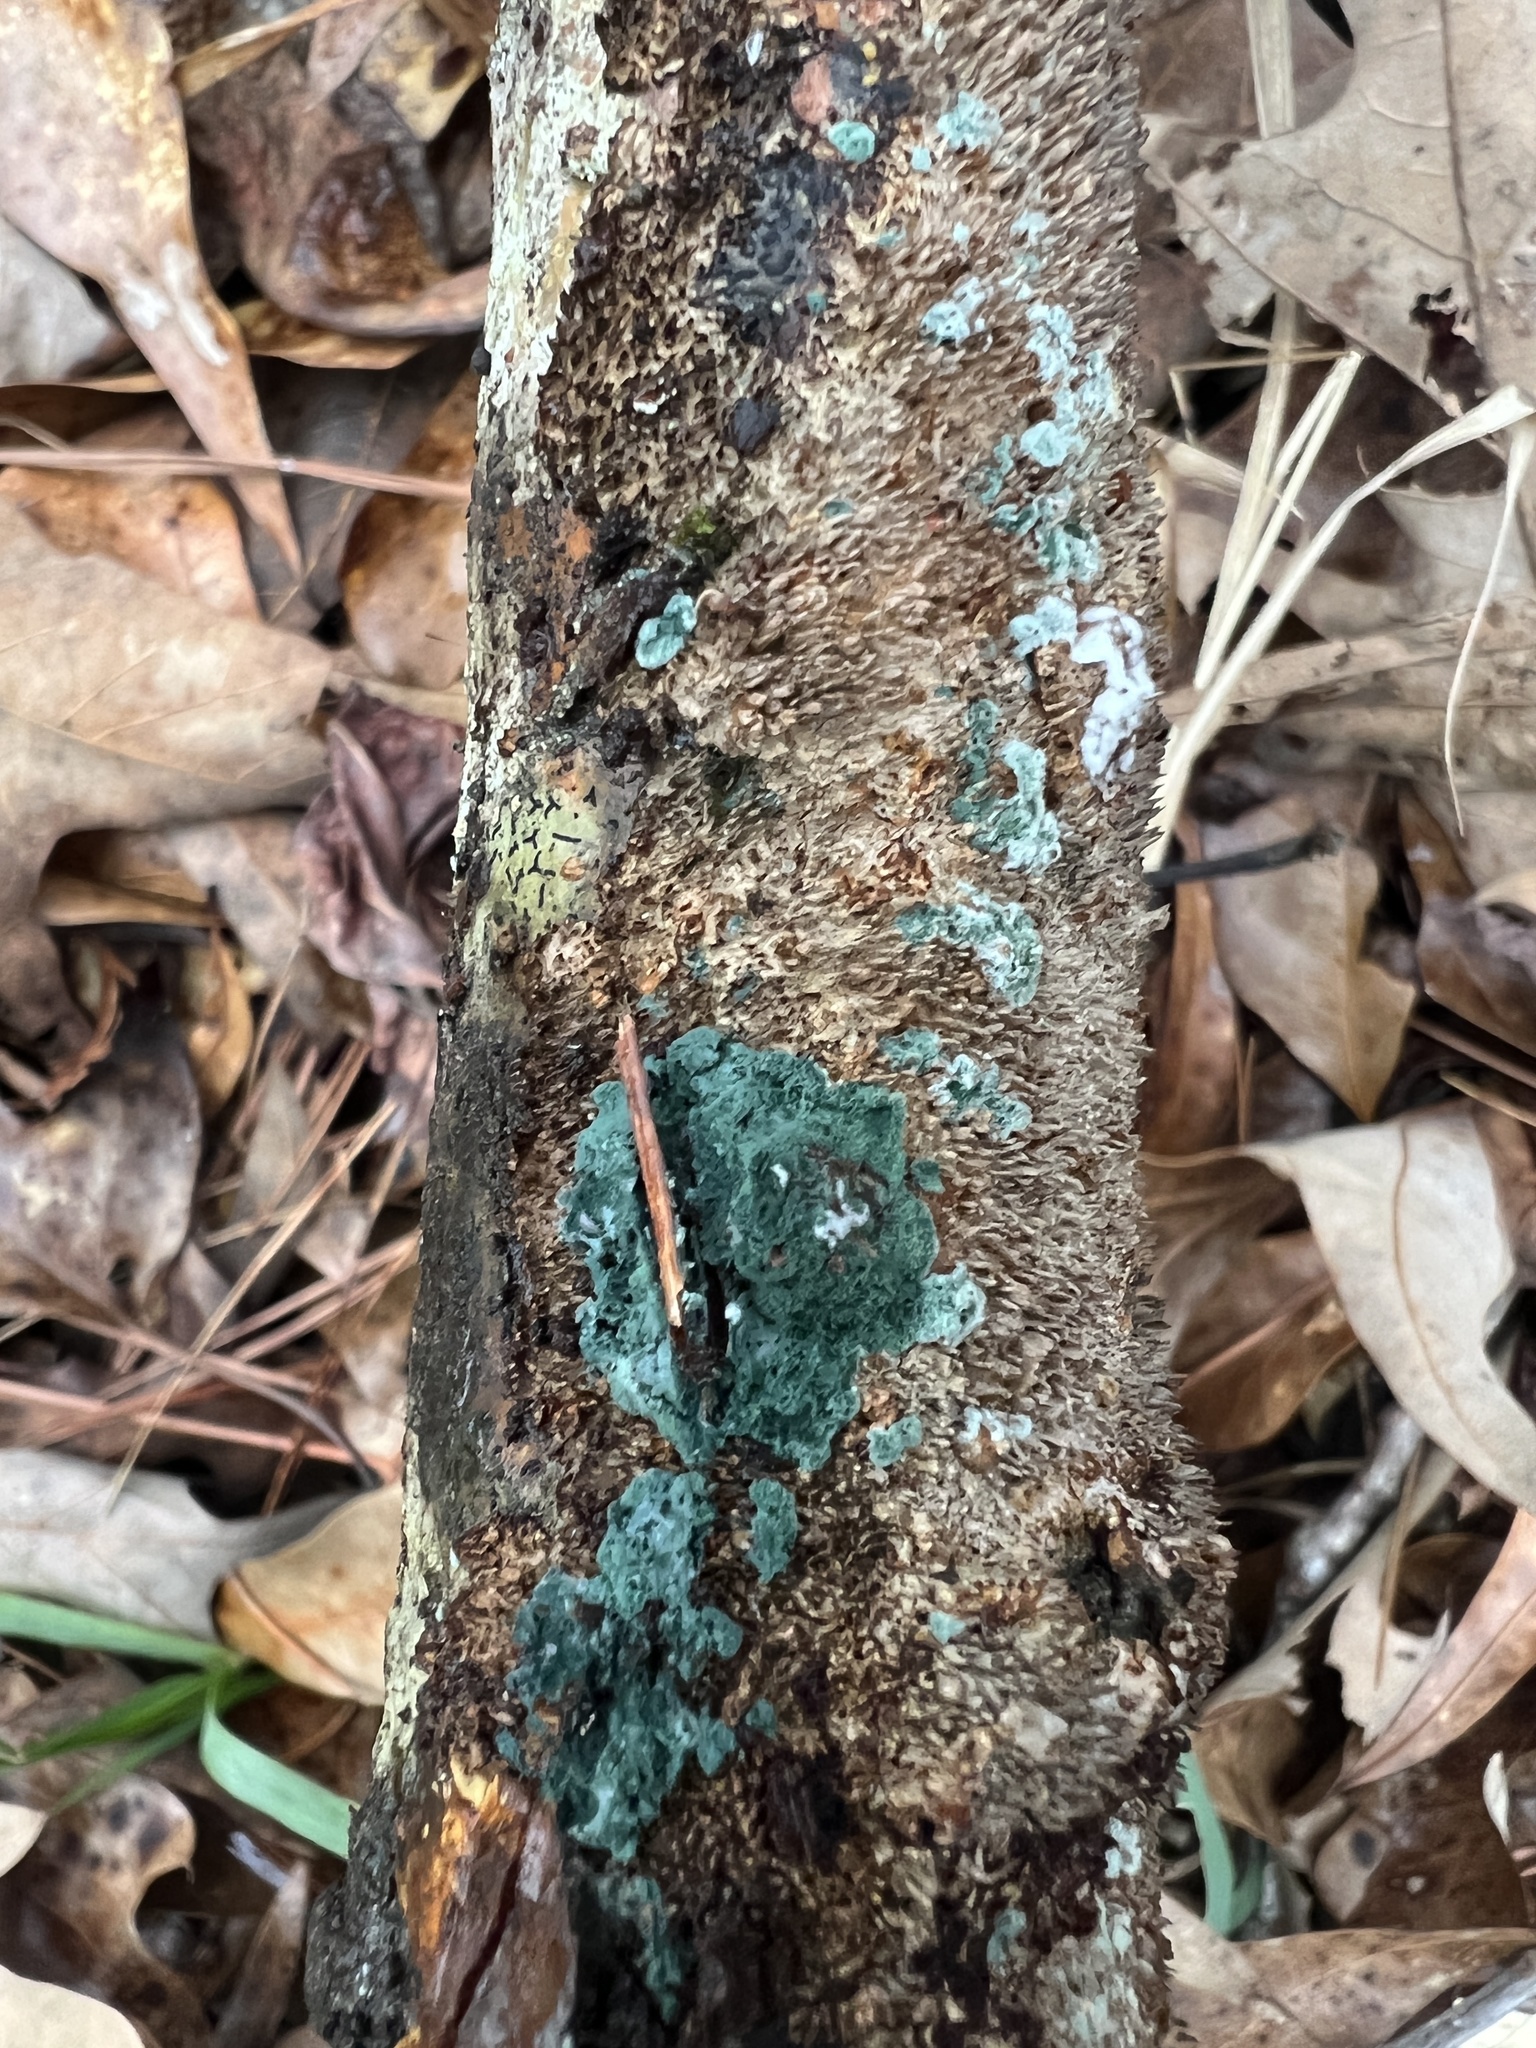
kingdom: Fungi
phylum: Ascomycota
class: Sordariomycetes
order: Hypocreales
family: Hypocreaceae
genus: Trichoderma
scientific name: Trichoderma
